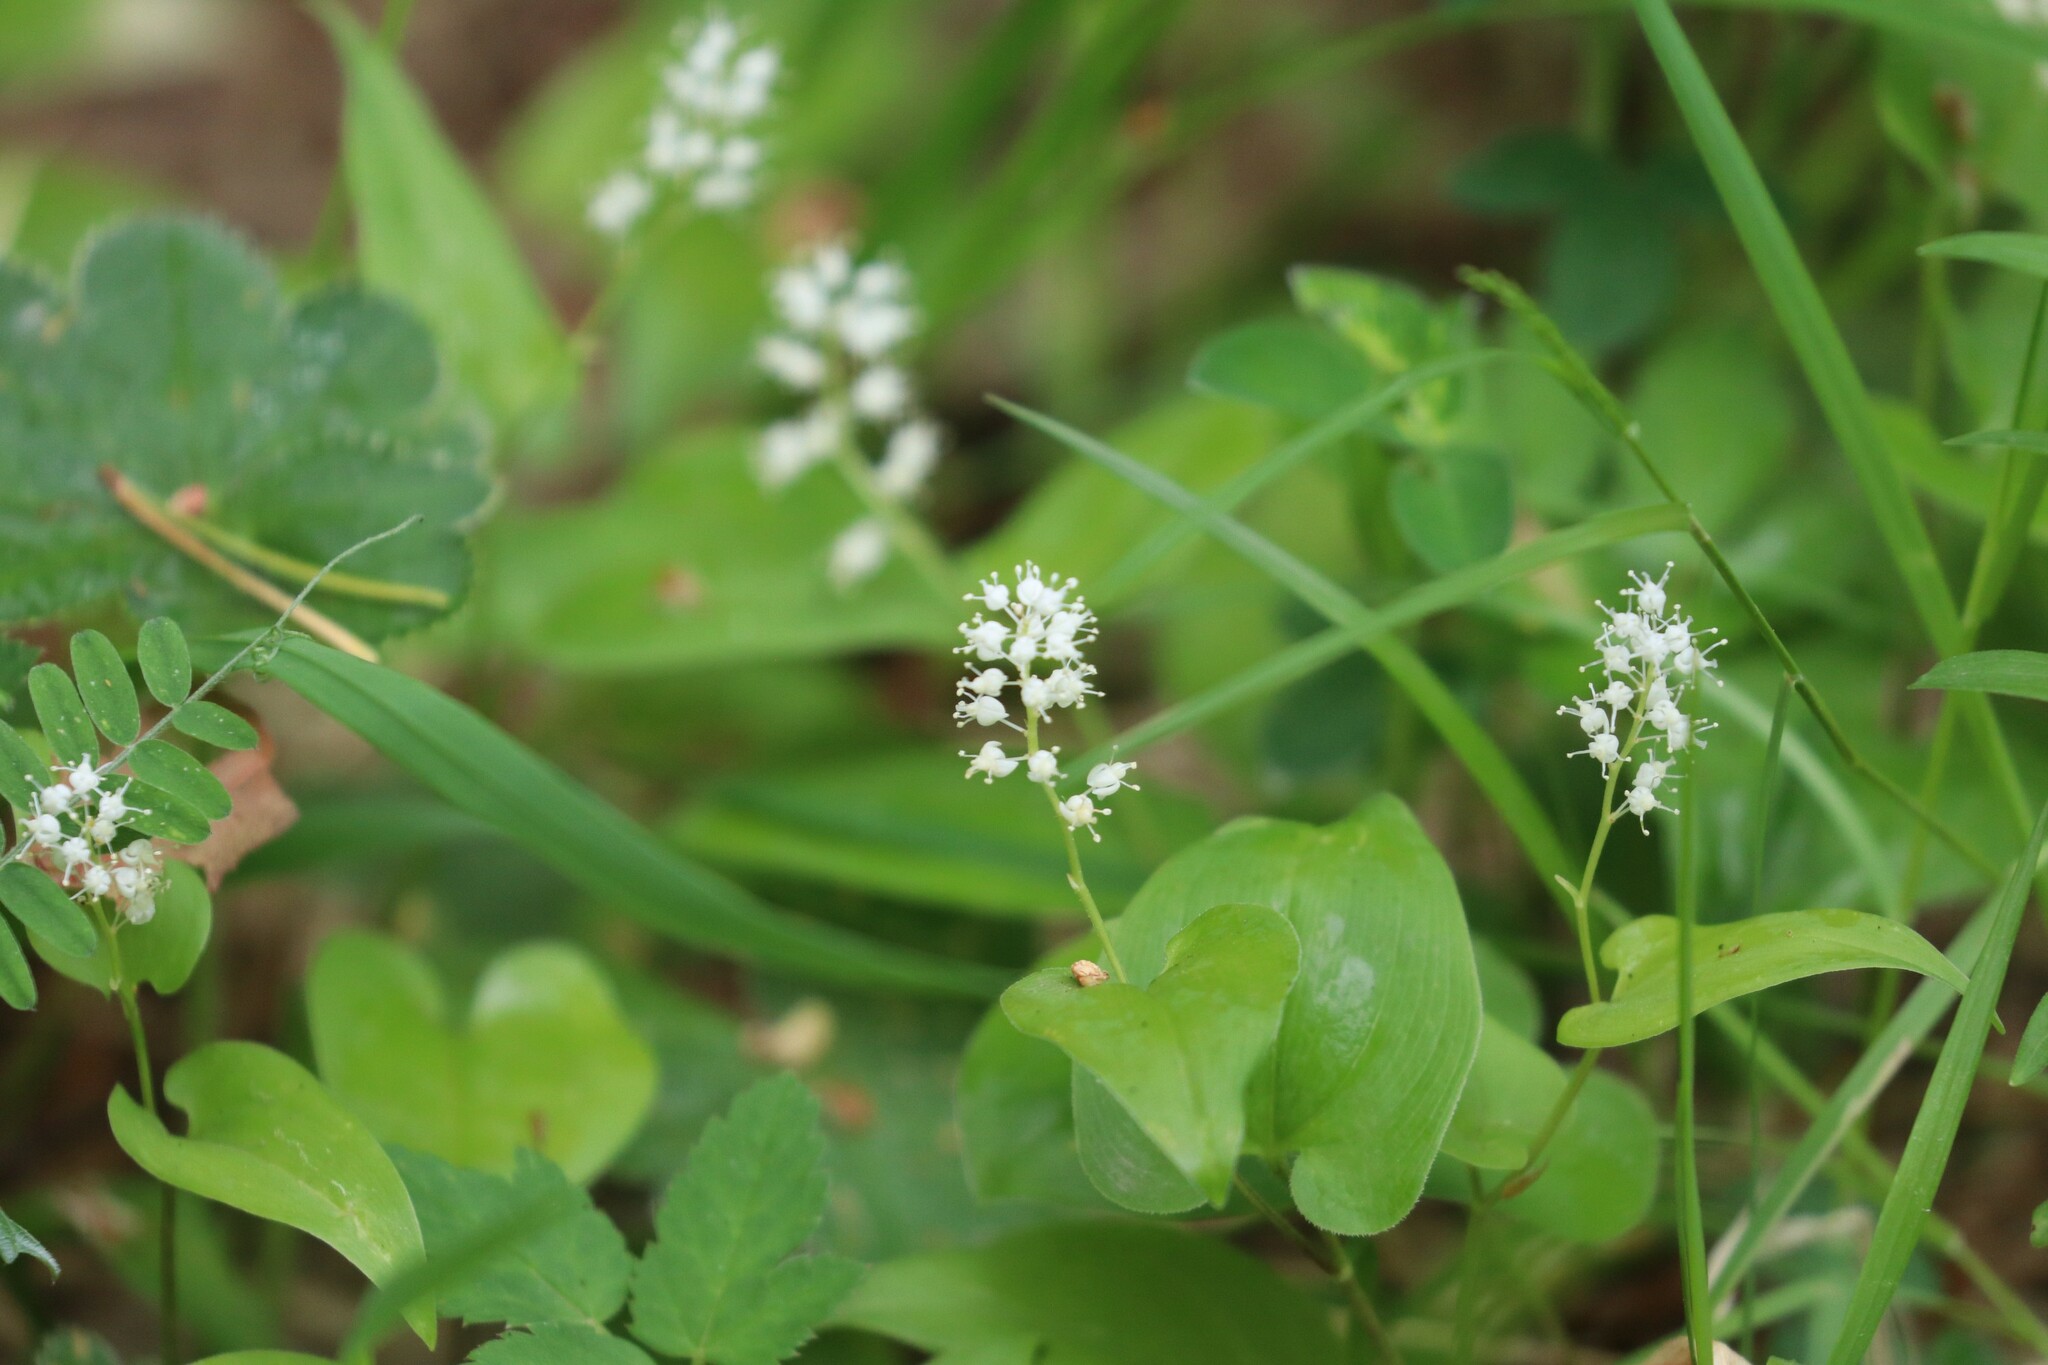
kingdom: Plantae
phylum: Tracheophyta
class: Liliopsida
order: Asparagales
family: Asparagaceae
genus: Maianthemum
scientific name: Maianthemum bifolium
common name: May lily
